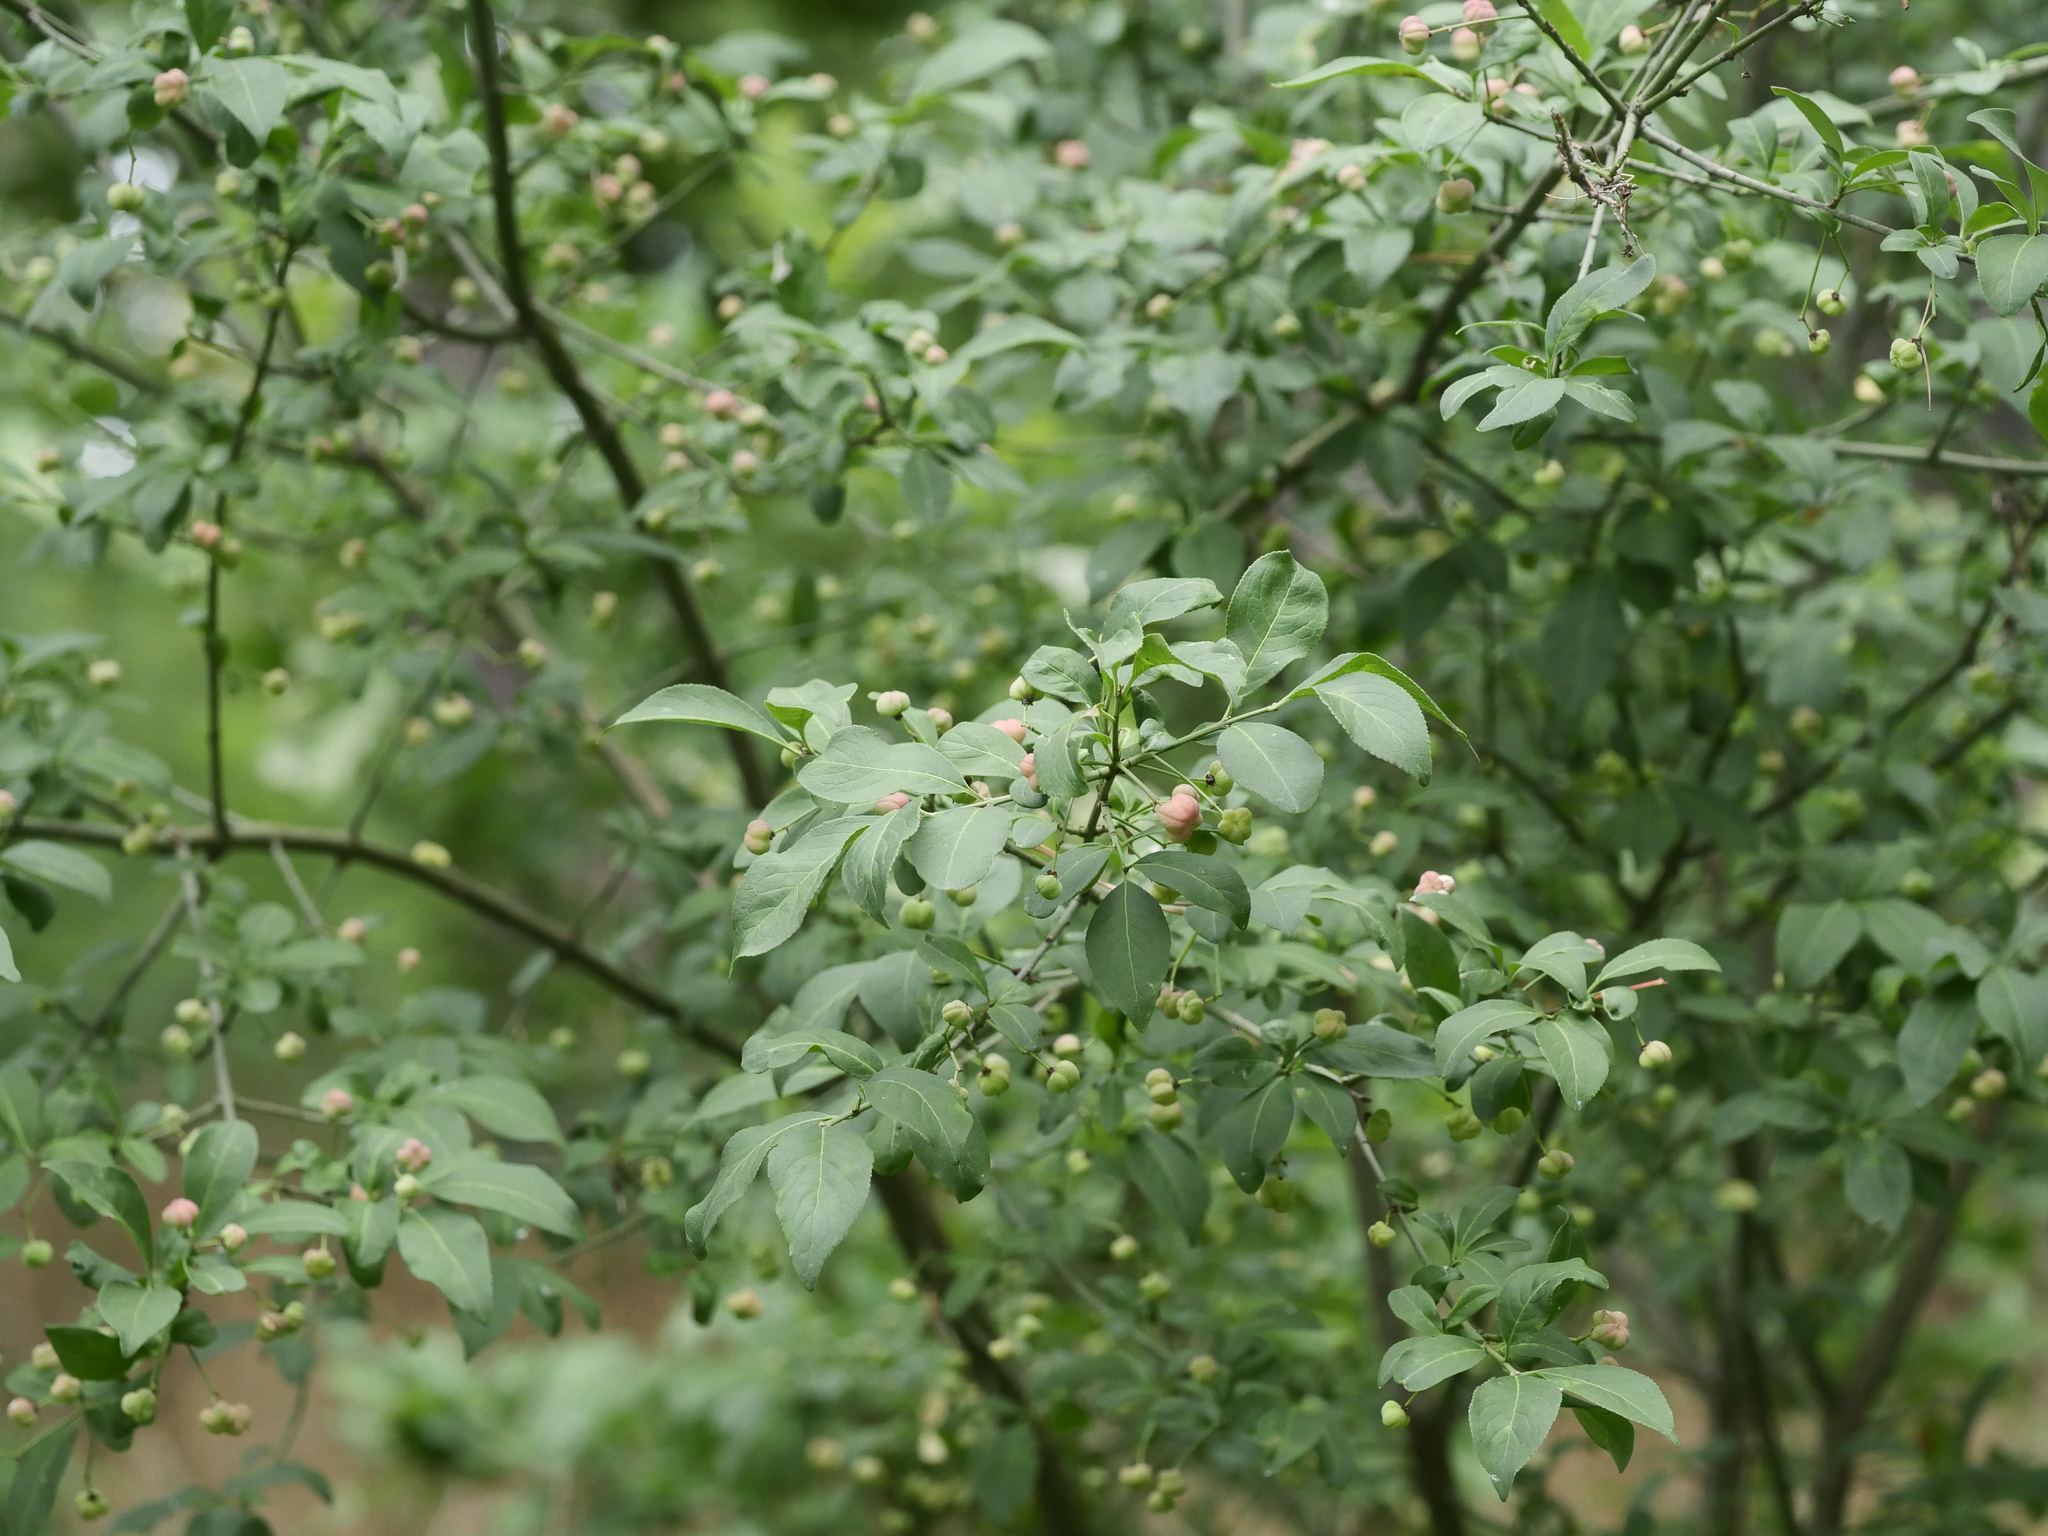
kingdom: Plantae
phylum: Tracheophyta
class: Magnoliopsida
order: Celastrales
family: Celastraceae
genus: Euonymus
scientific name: Euonymus europaeus
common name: Spindle
